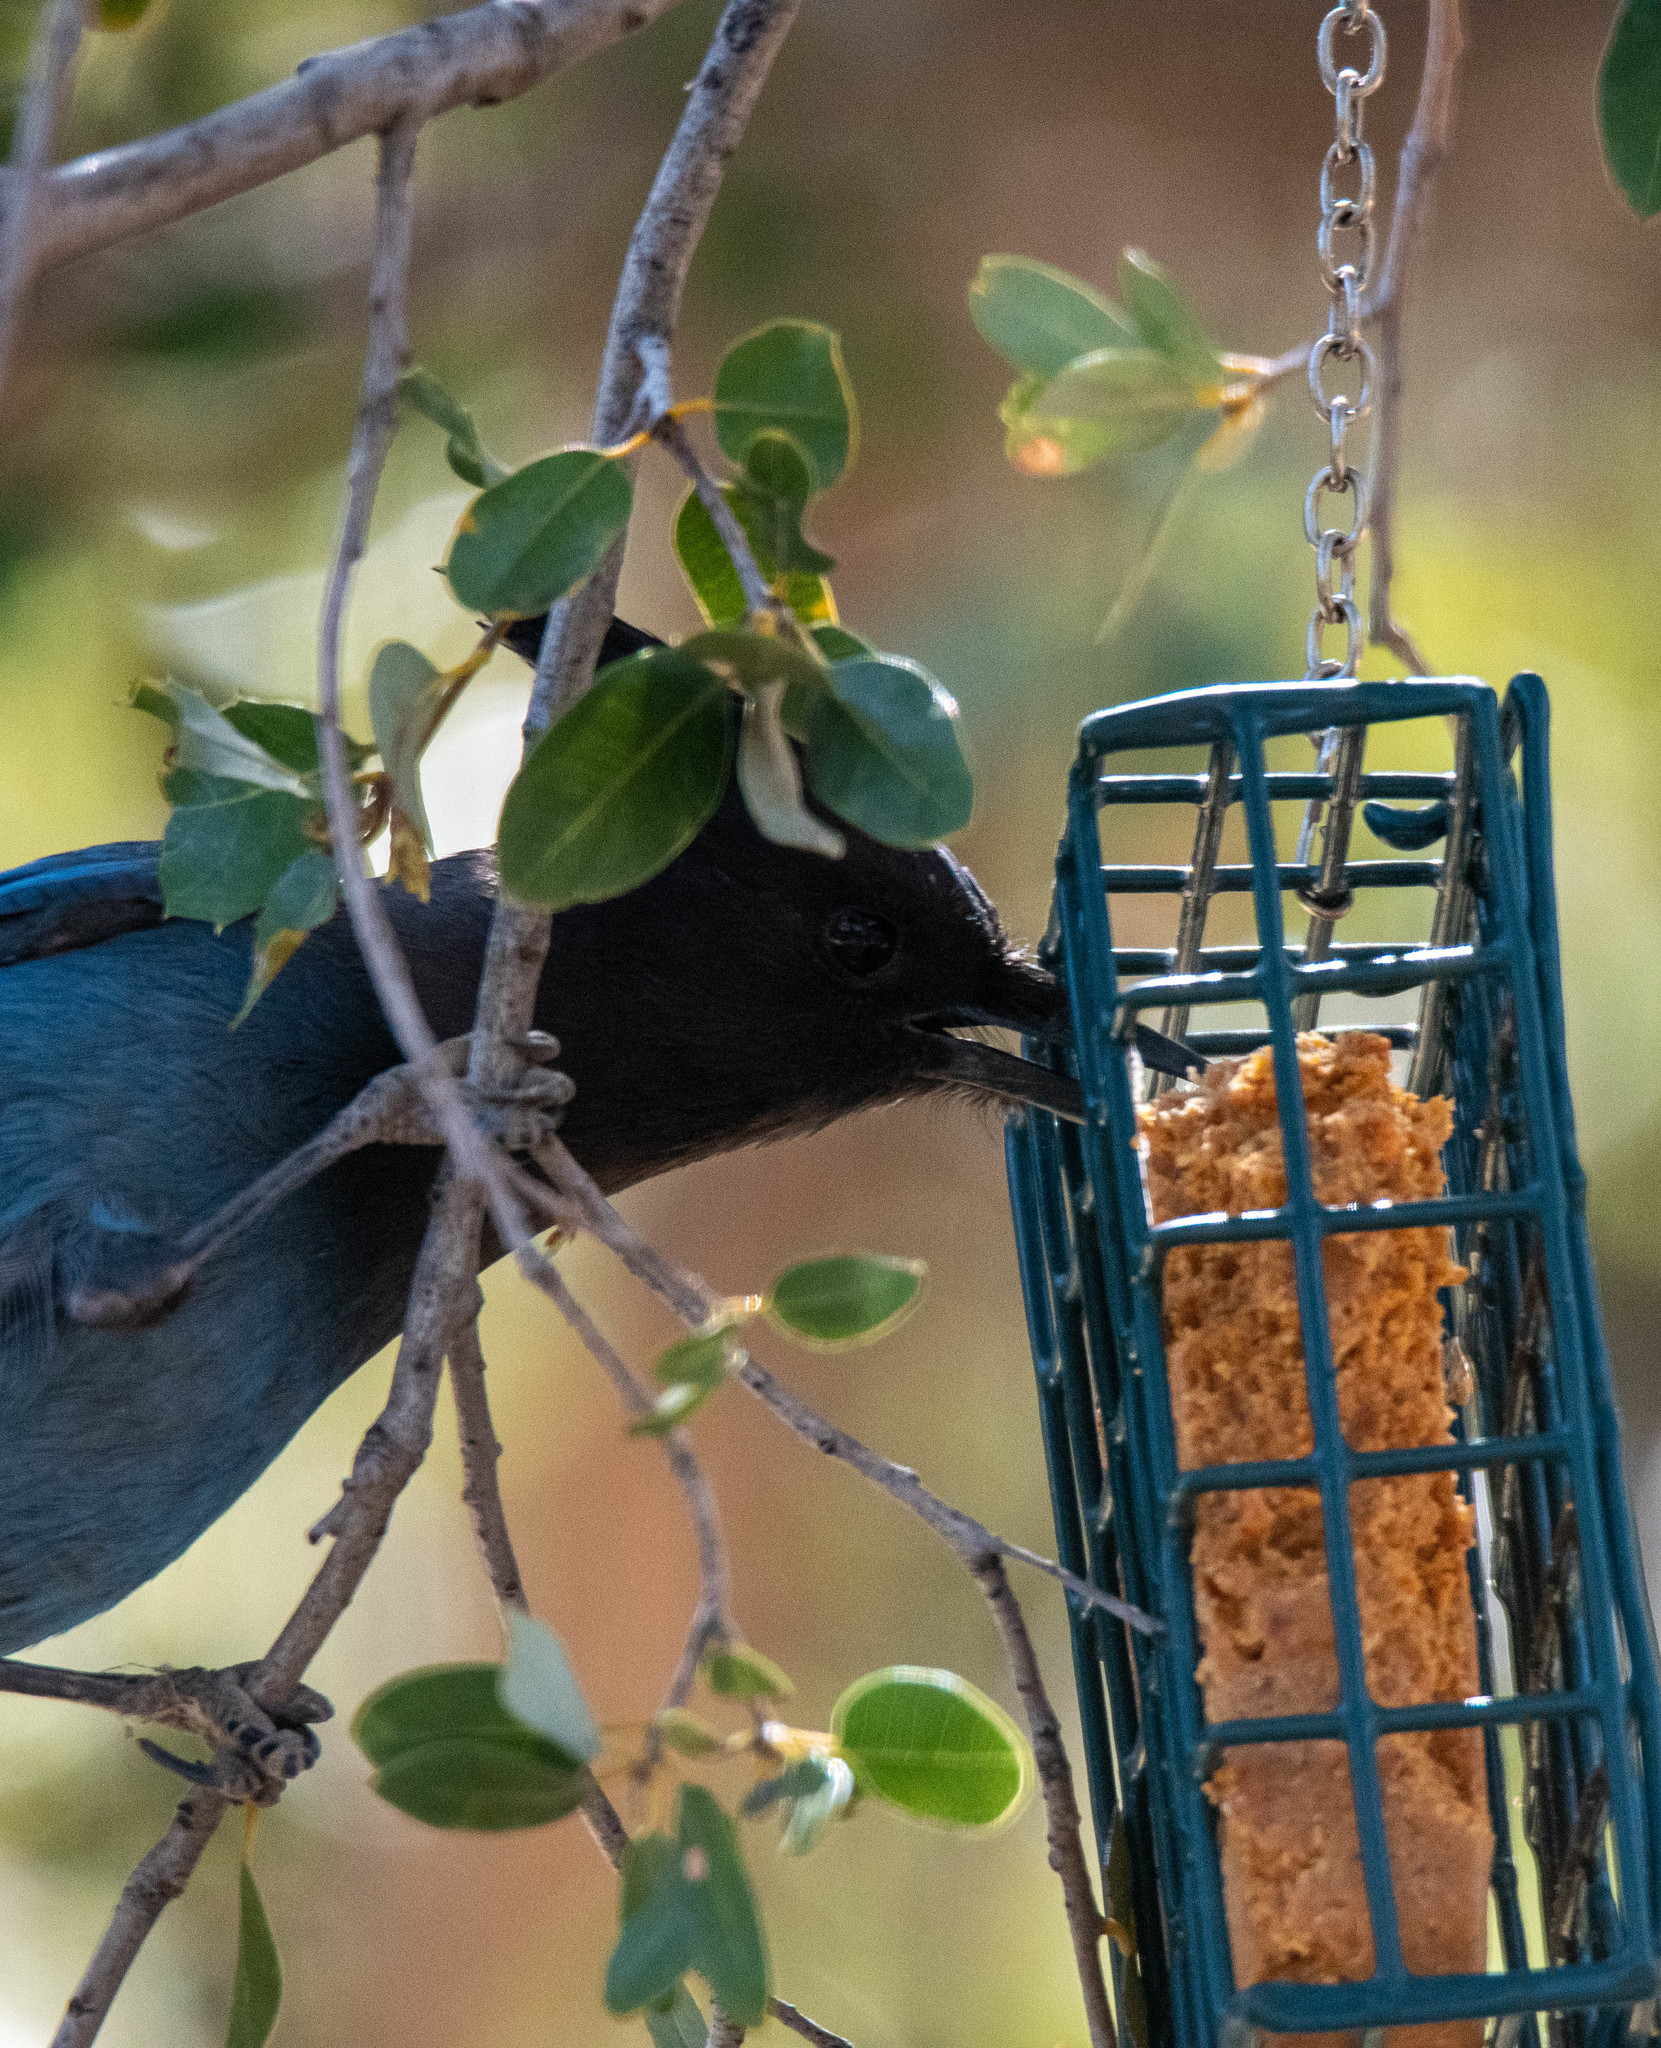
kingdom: Animalia
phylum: Chordata
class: Aves
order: Passeriformes
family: Corvidae
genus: Cyanocitta
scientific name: Cyanocitta stelleri
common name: Steller's jay
